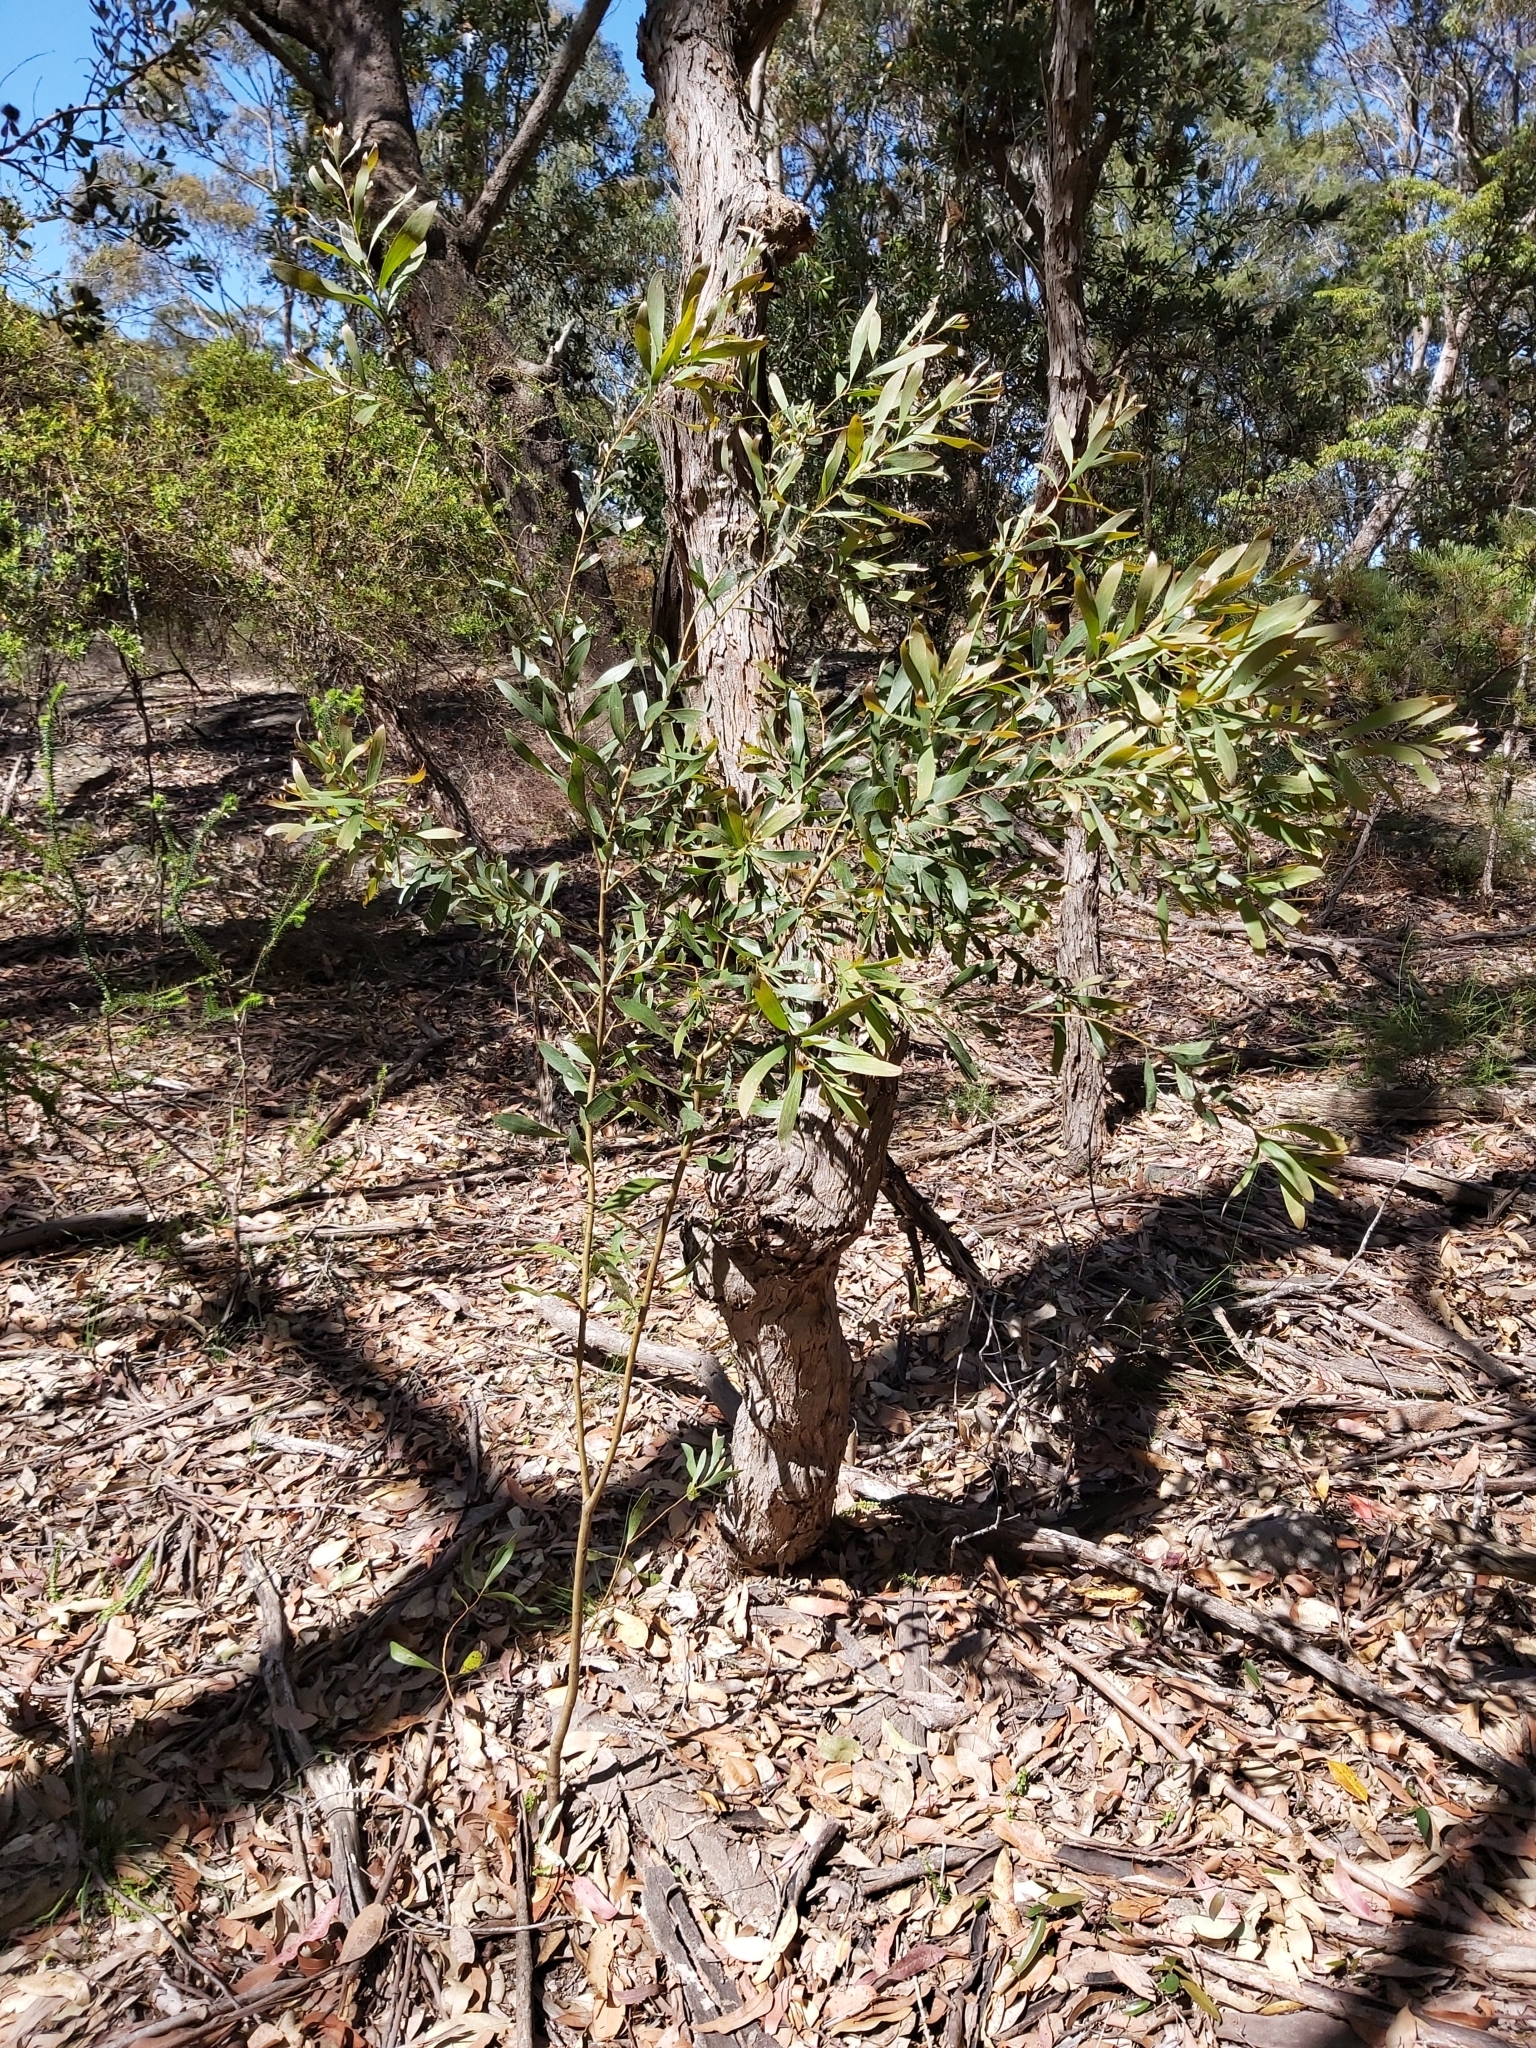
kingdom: Plantae
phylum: Tracheophyta
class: Magnoliopsida
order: Proteales
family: Proteaceae
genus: Hakea
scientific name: Hakea dactyloides
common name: Finger hakea
